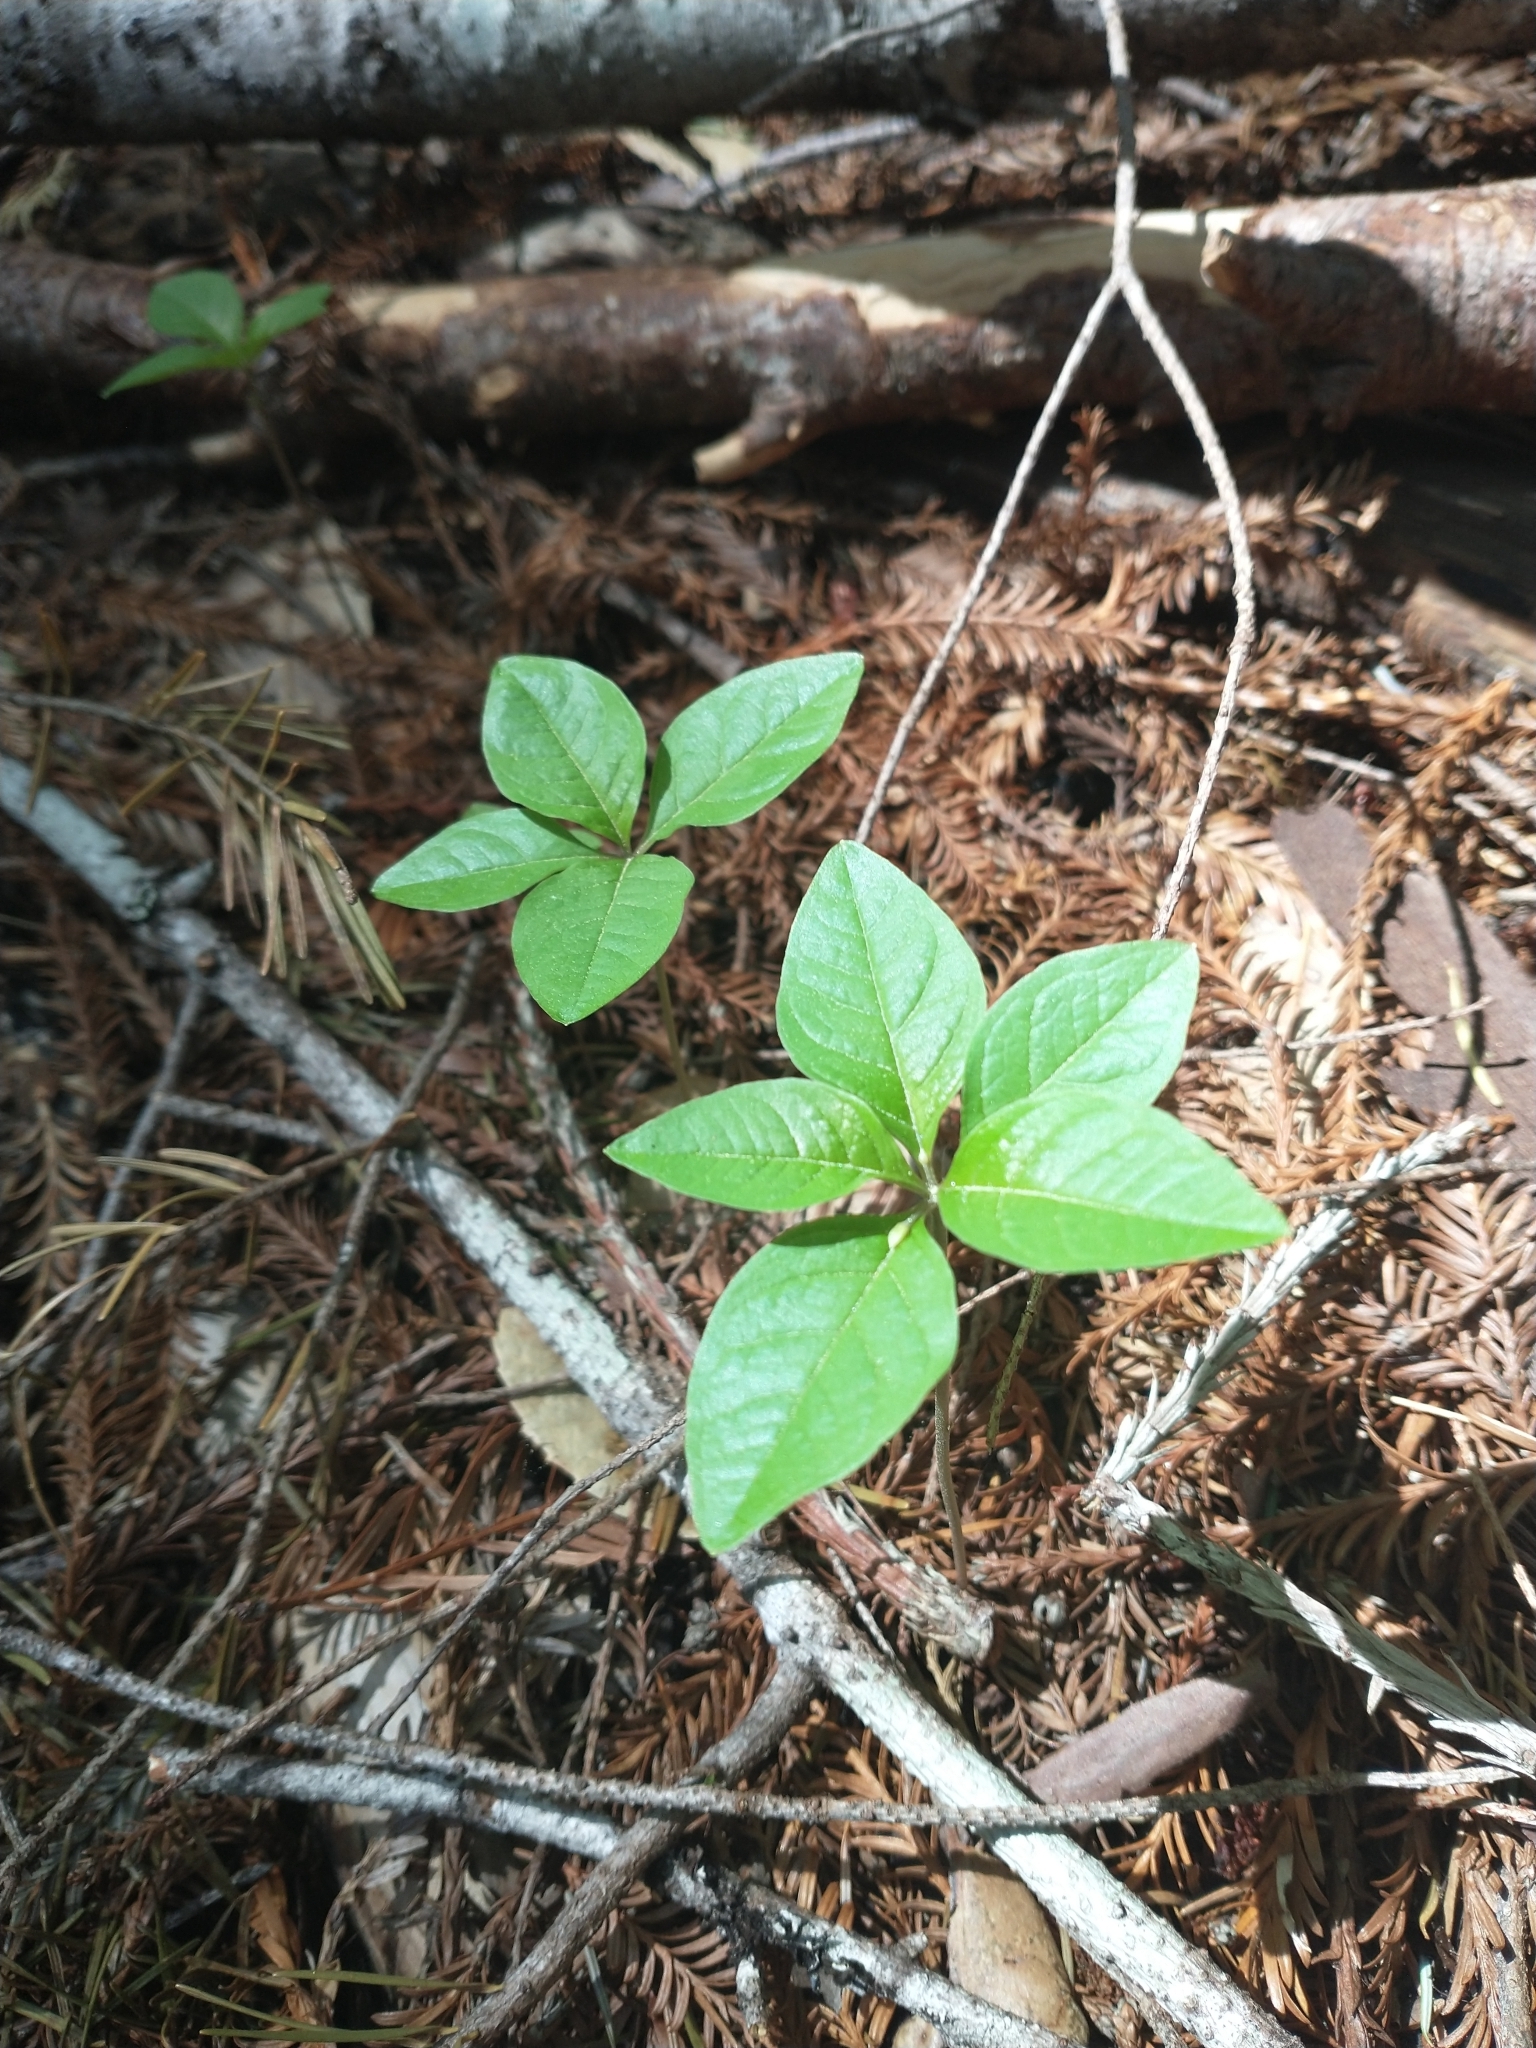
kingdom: Plantae
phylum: Tracheophyta
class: Magnoliopsida
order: Ericales
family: Primulaceae
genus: Lysimachia
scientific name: Lysimachia latifolia
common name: Pacific starflower
